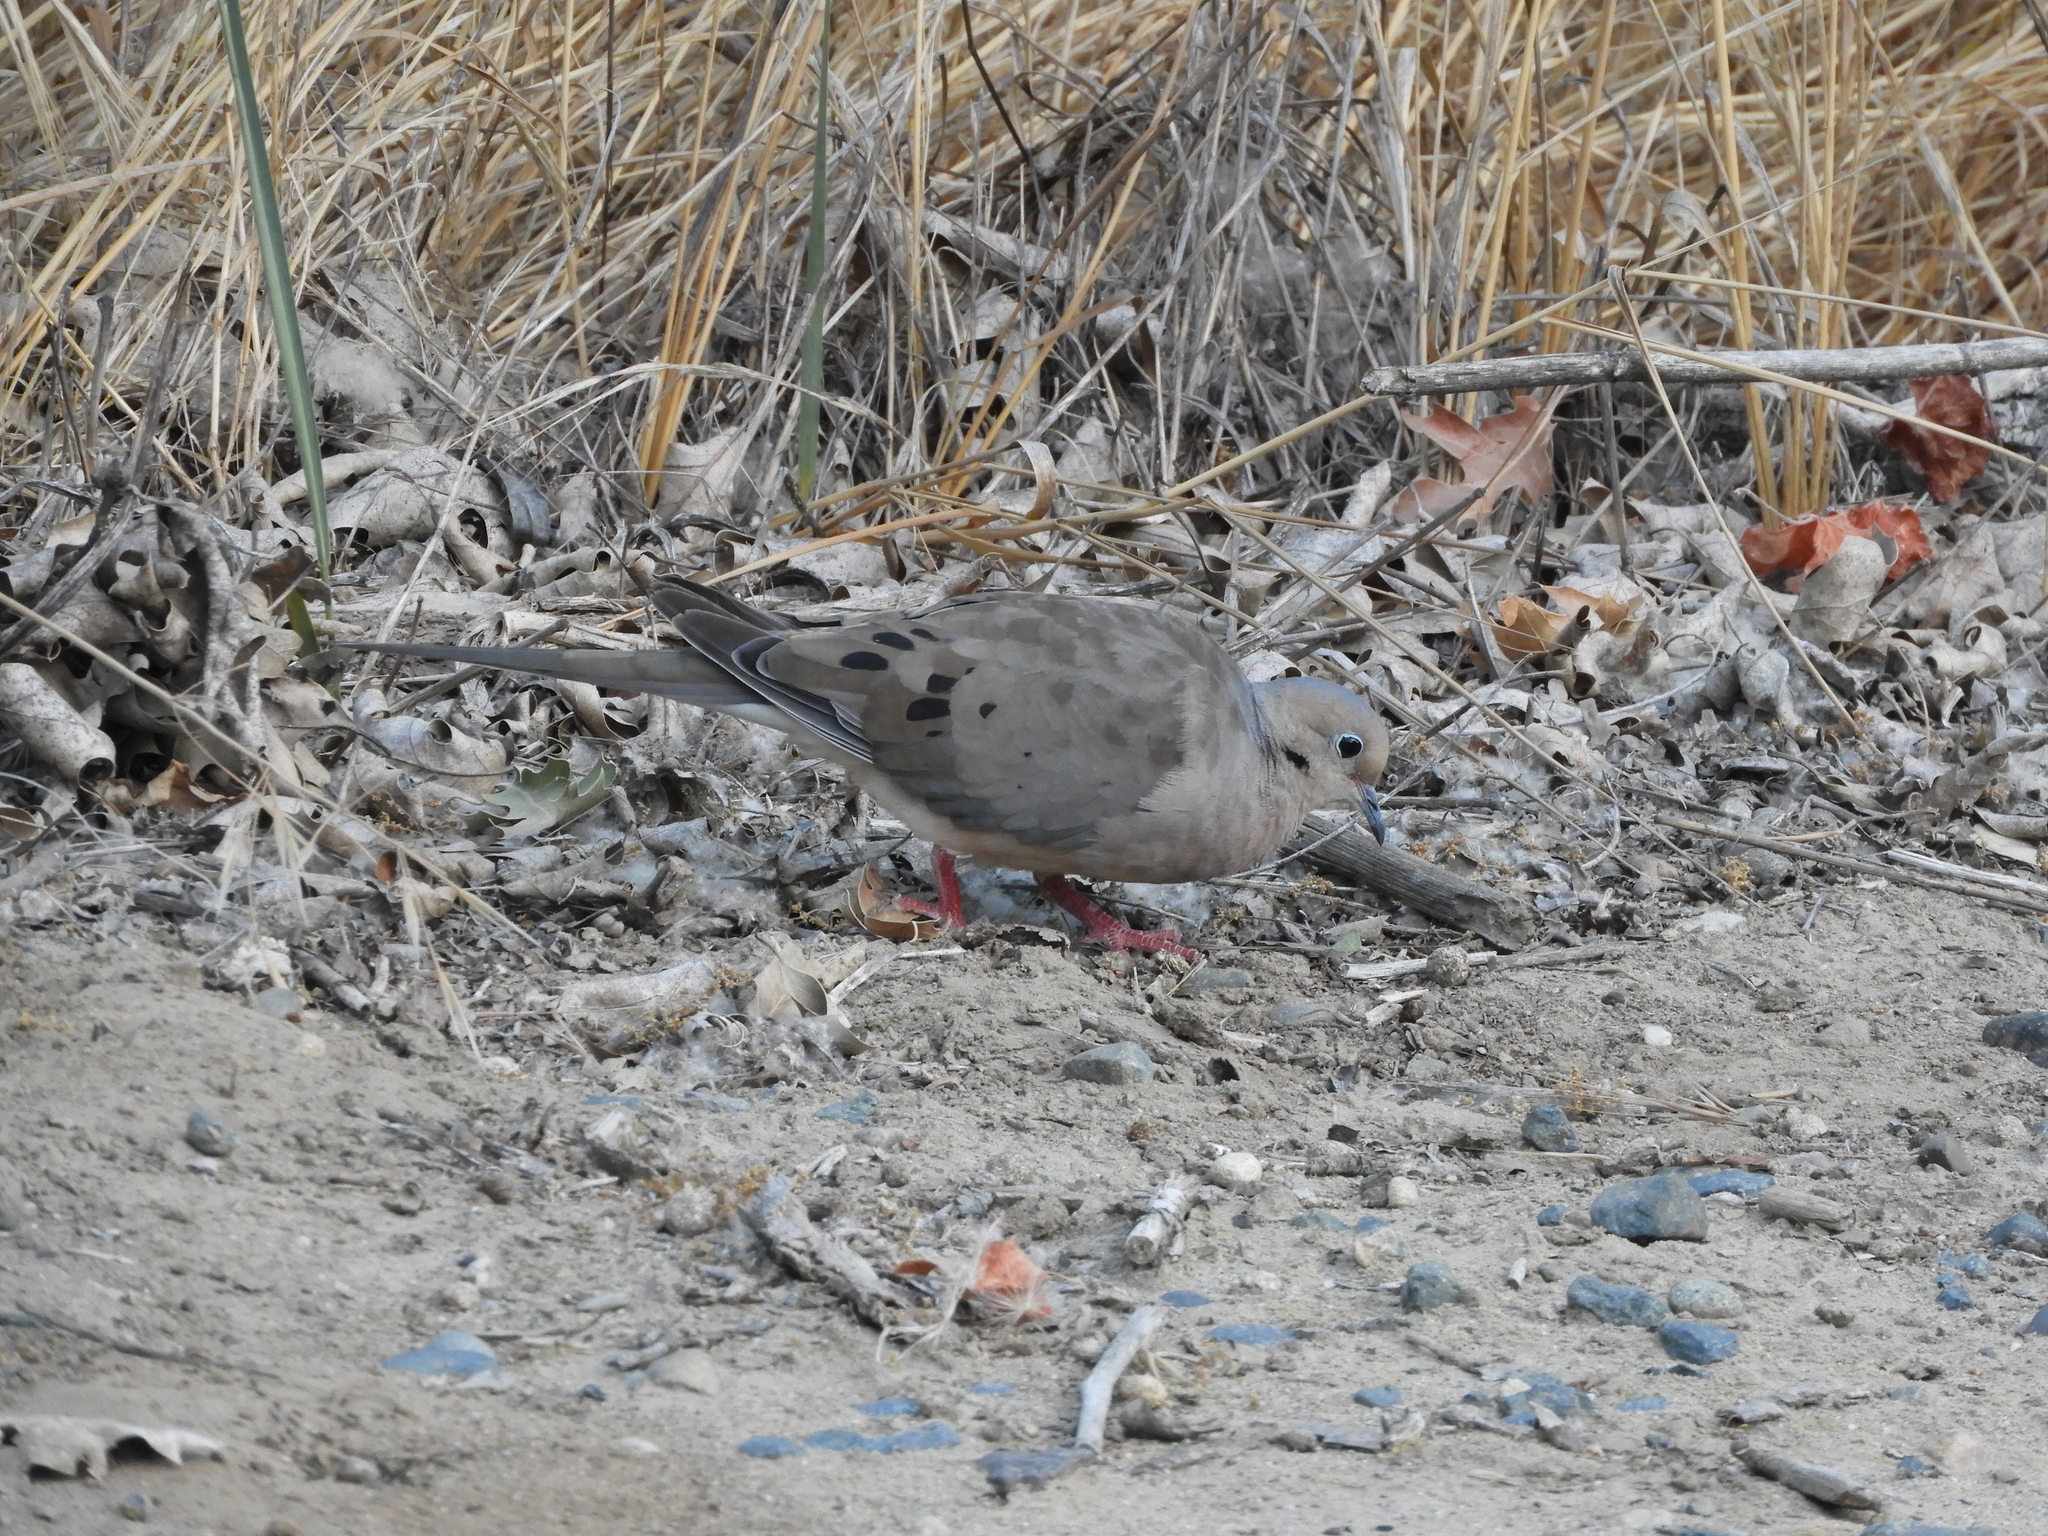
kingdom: Animalia
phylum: Chordata
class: Aves
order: Columbiformes
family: Columbidae
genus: Zenaida
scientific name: Zenaida macroura
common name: Mourning dove
